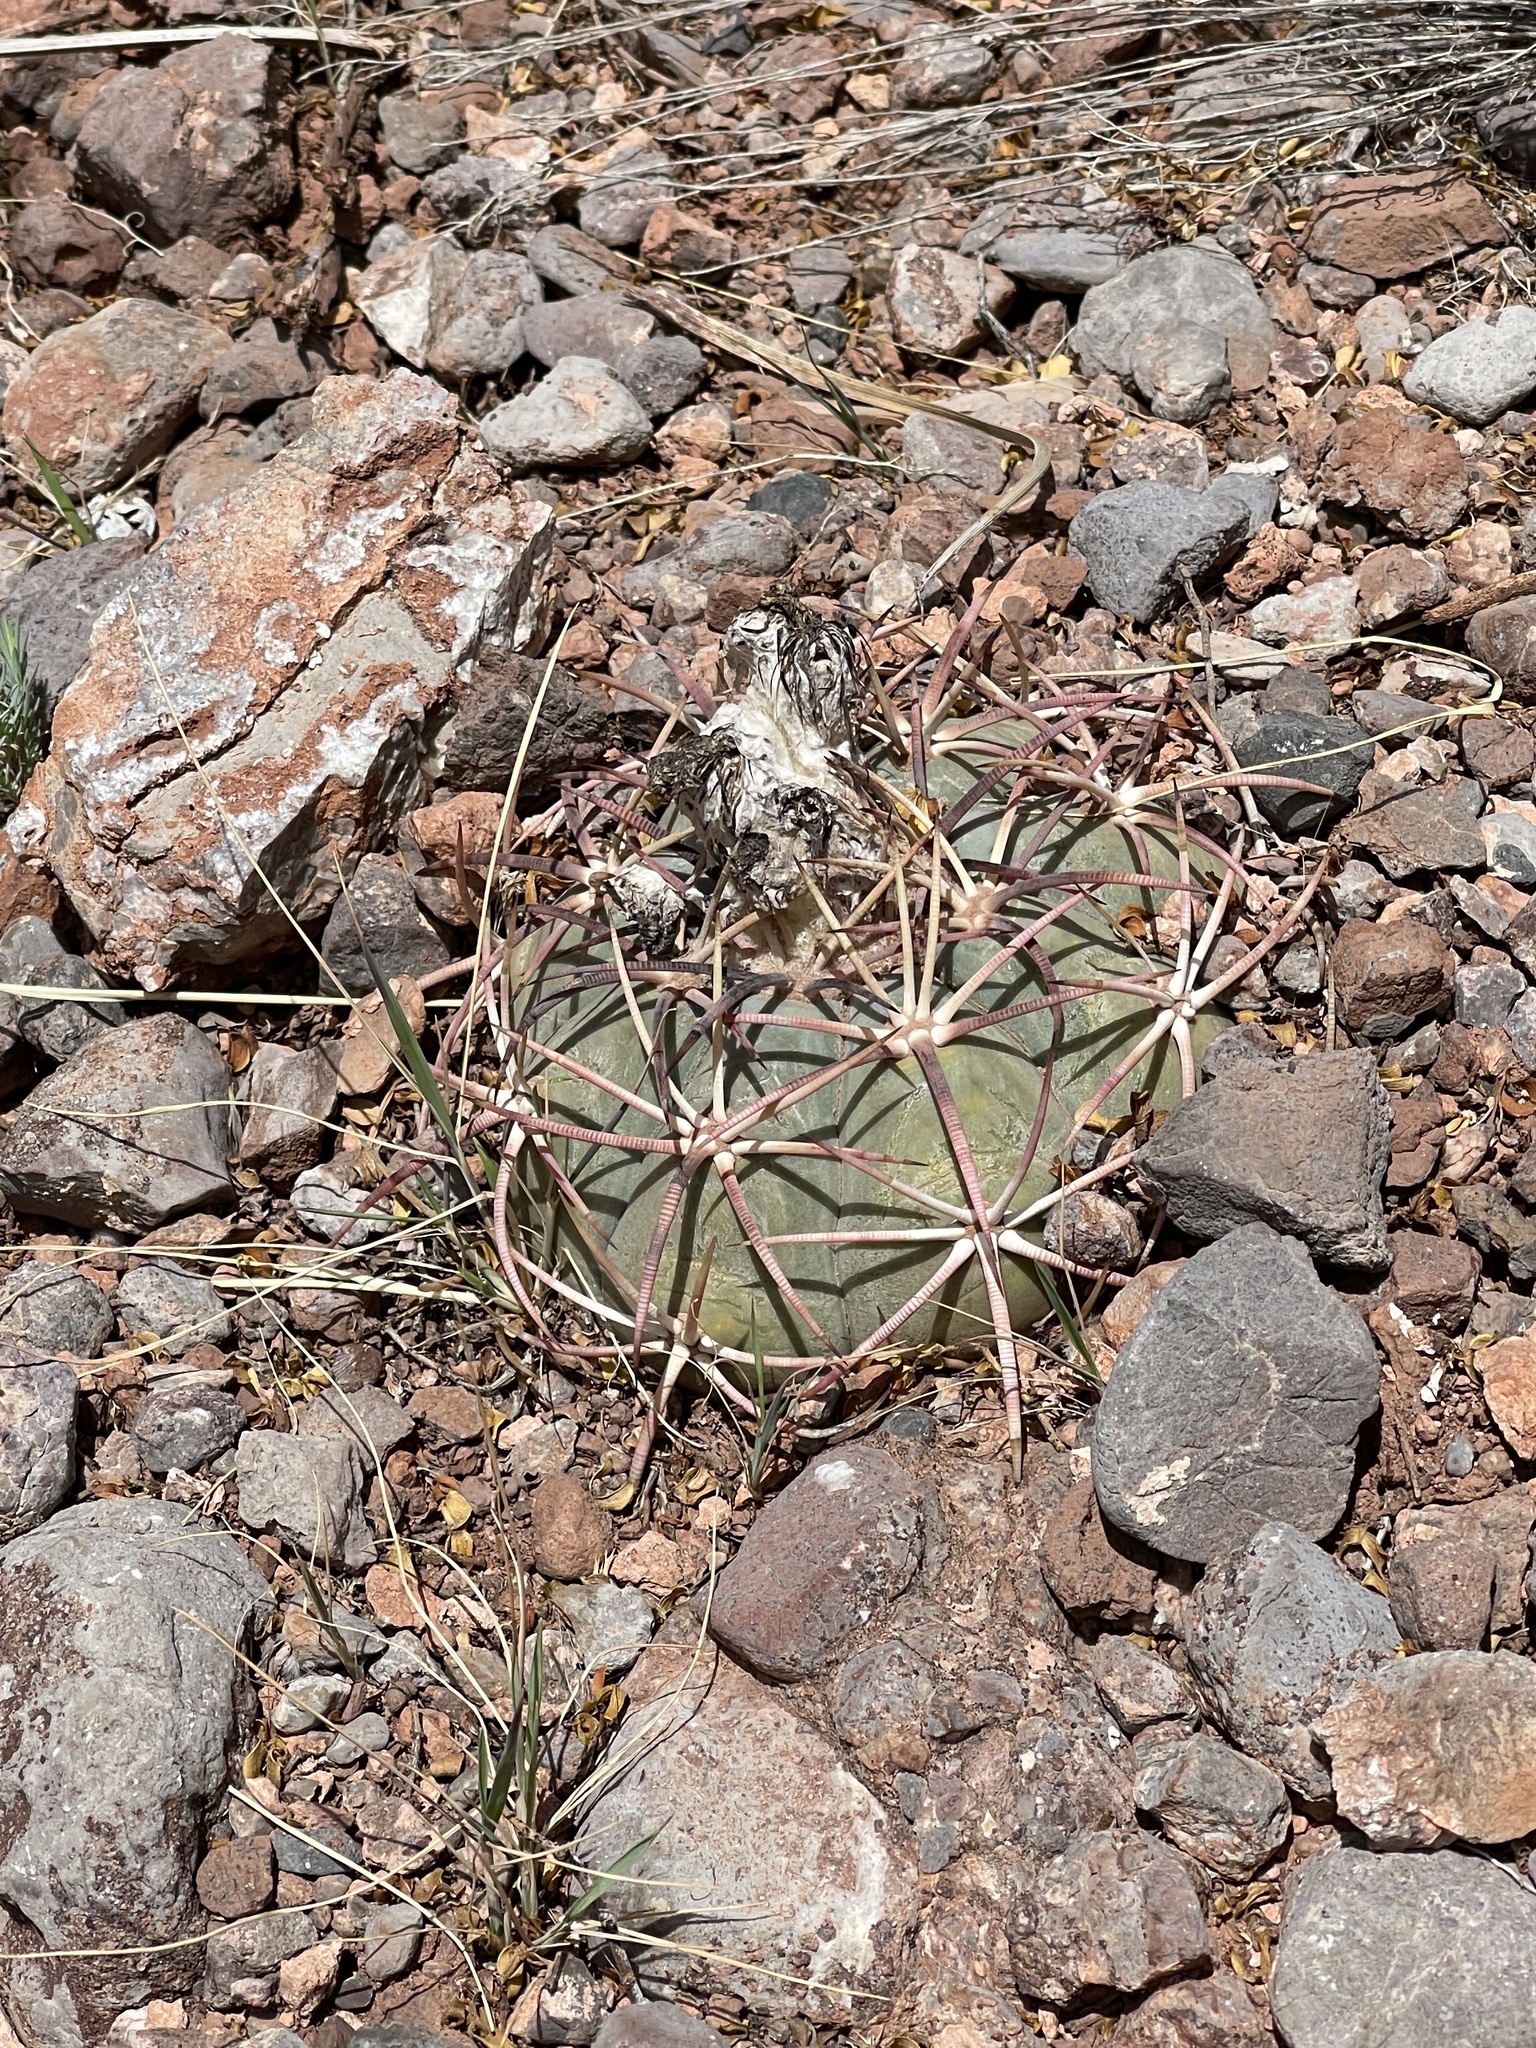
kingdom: Plantae
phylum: Tracheophyta
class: Magnoliopsida
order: Caryophyllales
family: Cactaceae
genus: Echinocactus
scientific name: Echinocactus horizonthalonius
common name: Devilshead
